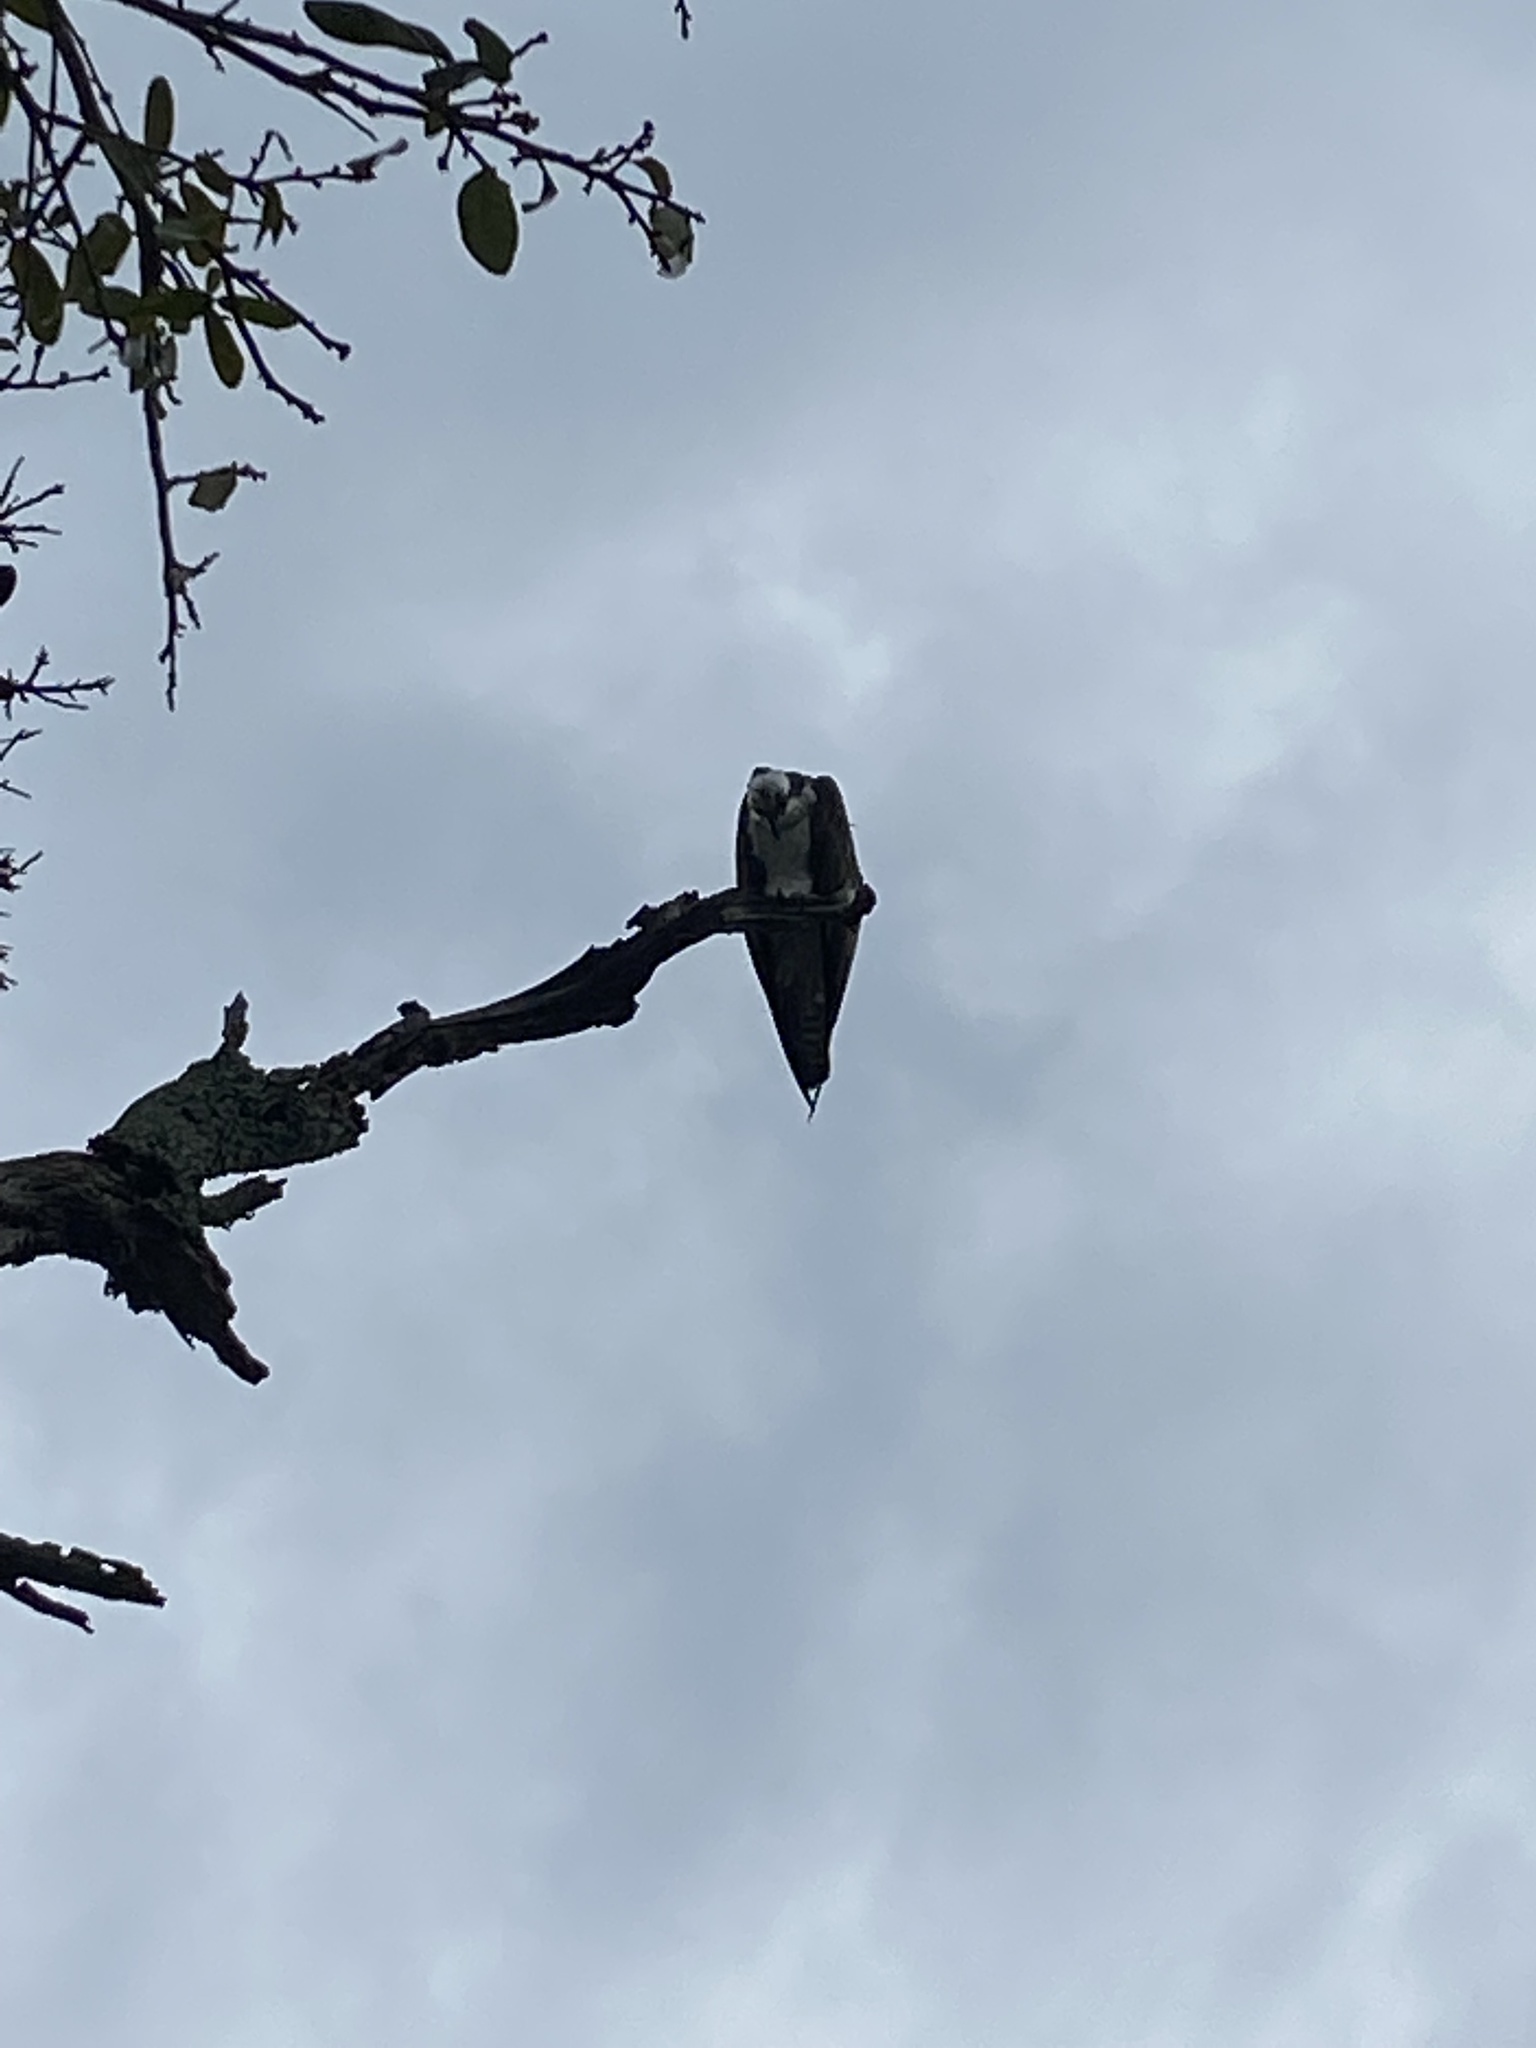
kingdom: Animalia
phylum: Chordata
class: Aves
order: Accipitriformes
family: Pandionidae
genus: Pandion
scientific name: Pandion haliaetus
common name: Osprey
